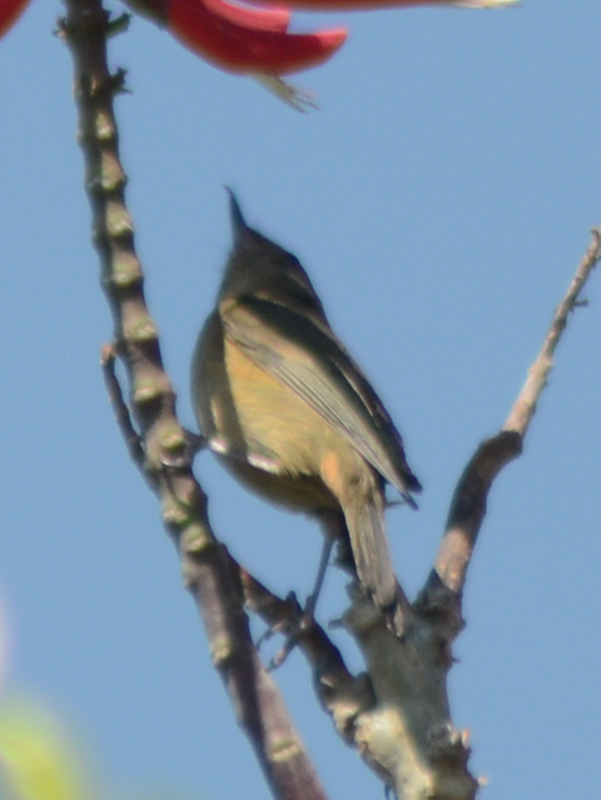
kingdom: Animalia
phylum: Chordata
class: Aves
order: Passeriformes
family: Thraupidae
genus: Diglossa
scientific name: Diglossa baritula
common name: Cinnamon-bellied flowerpiercer
